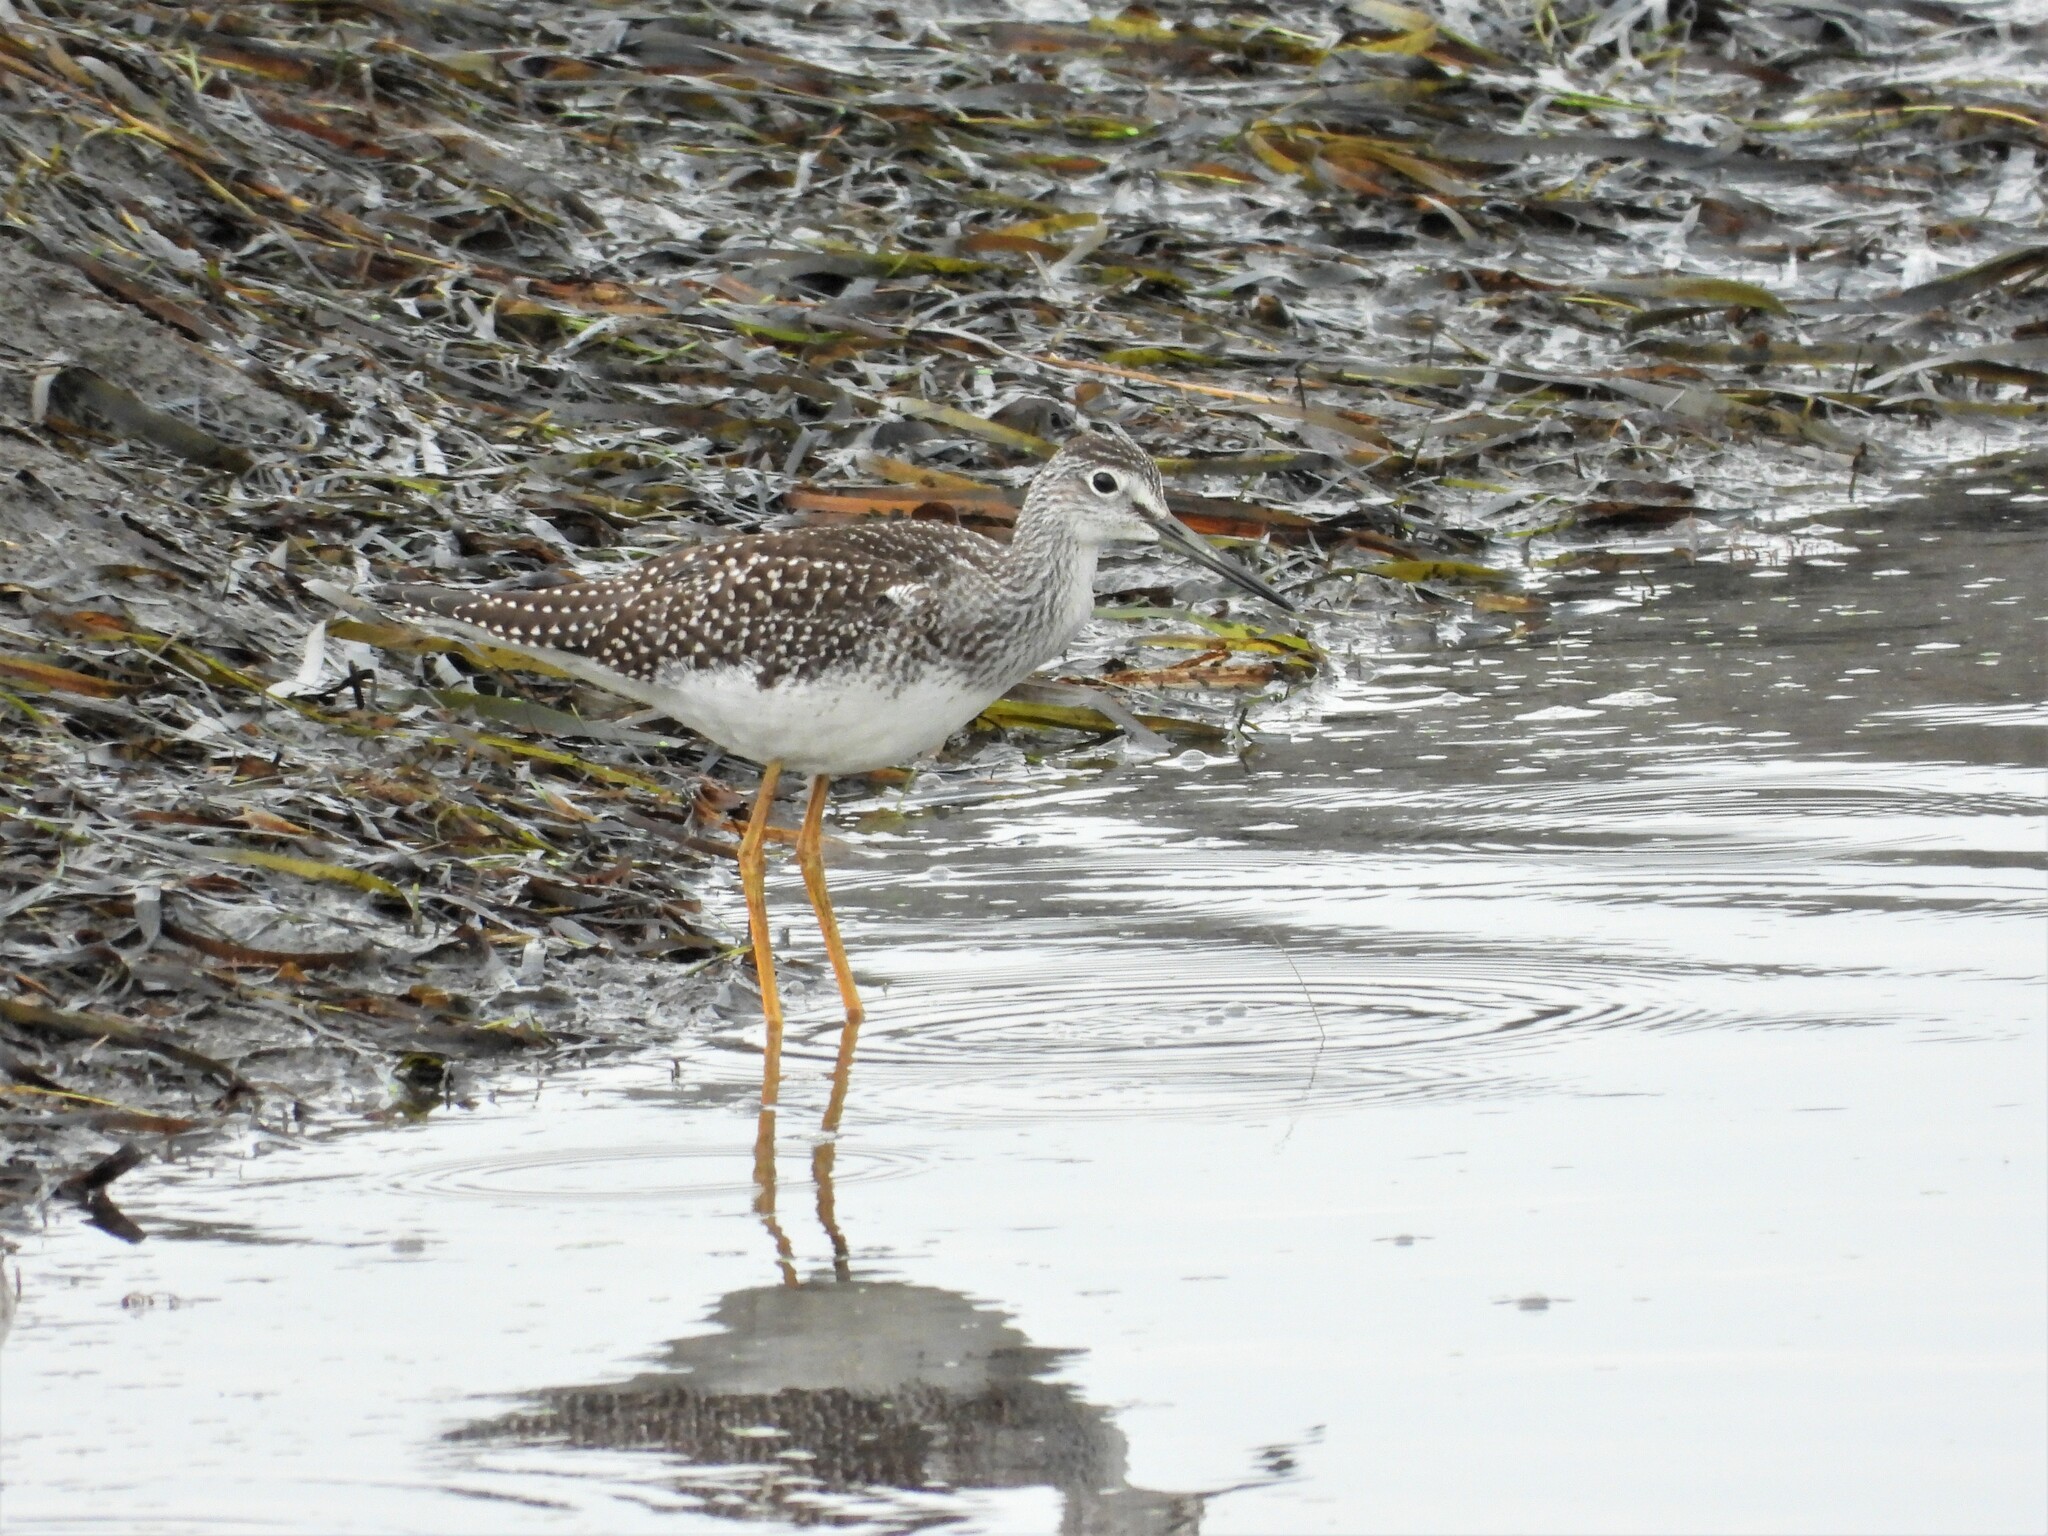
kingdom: Animalia
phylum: Chordata
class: Aves
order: Charadriiformes
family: Scolopacidae
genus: Tringa
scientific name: Tringa melanoleuca
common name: Greater yellowlegs
